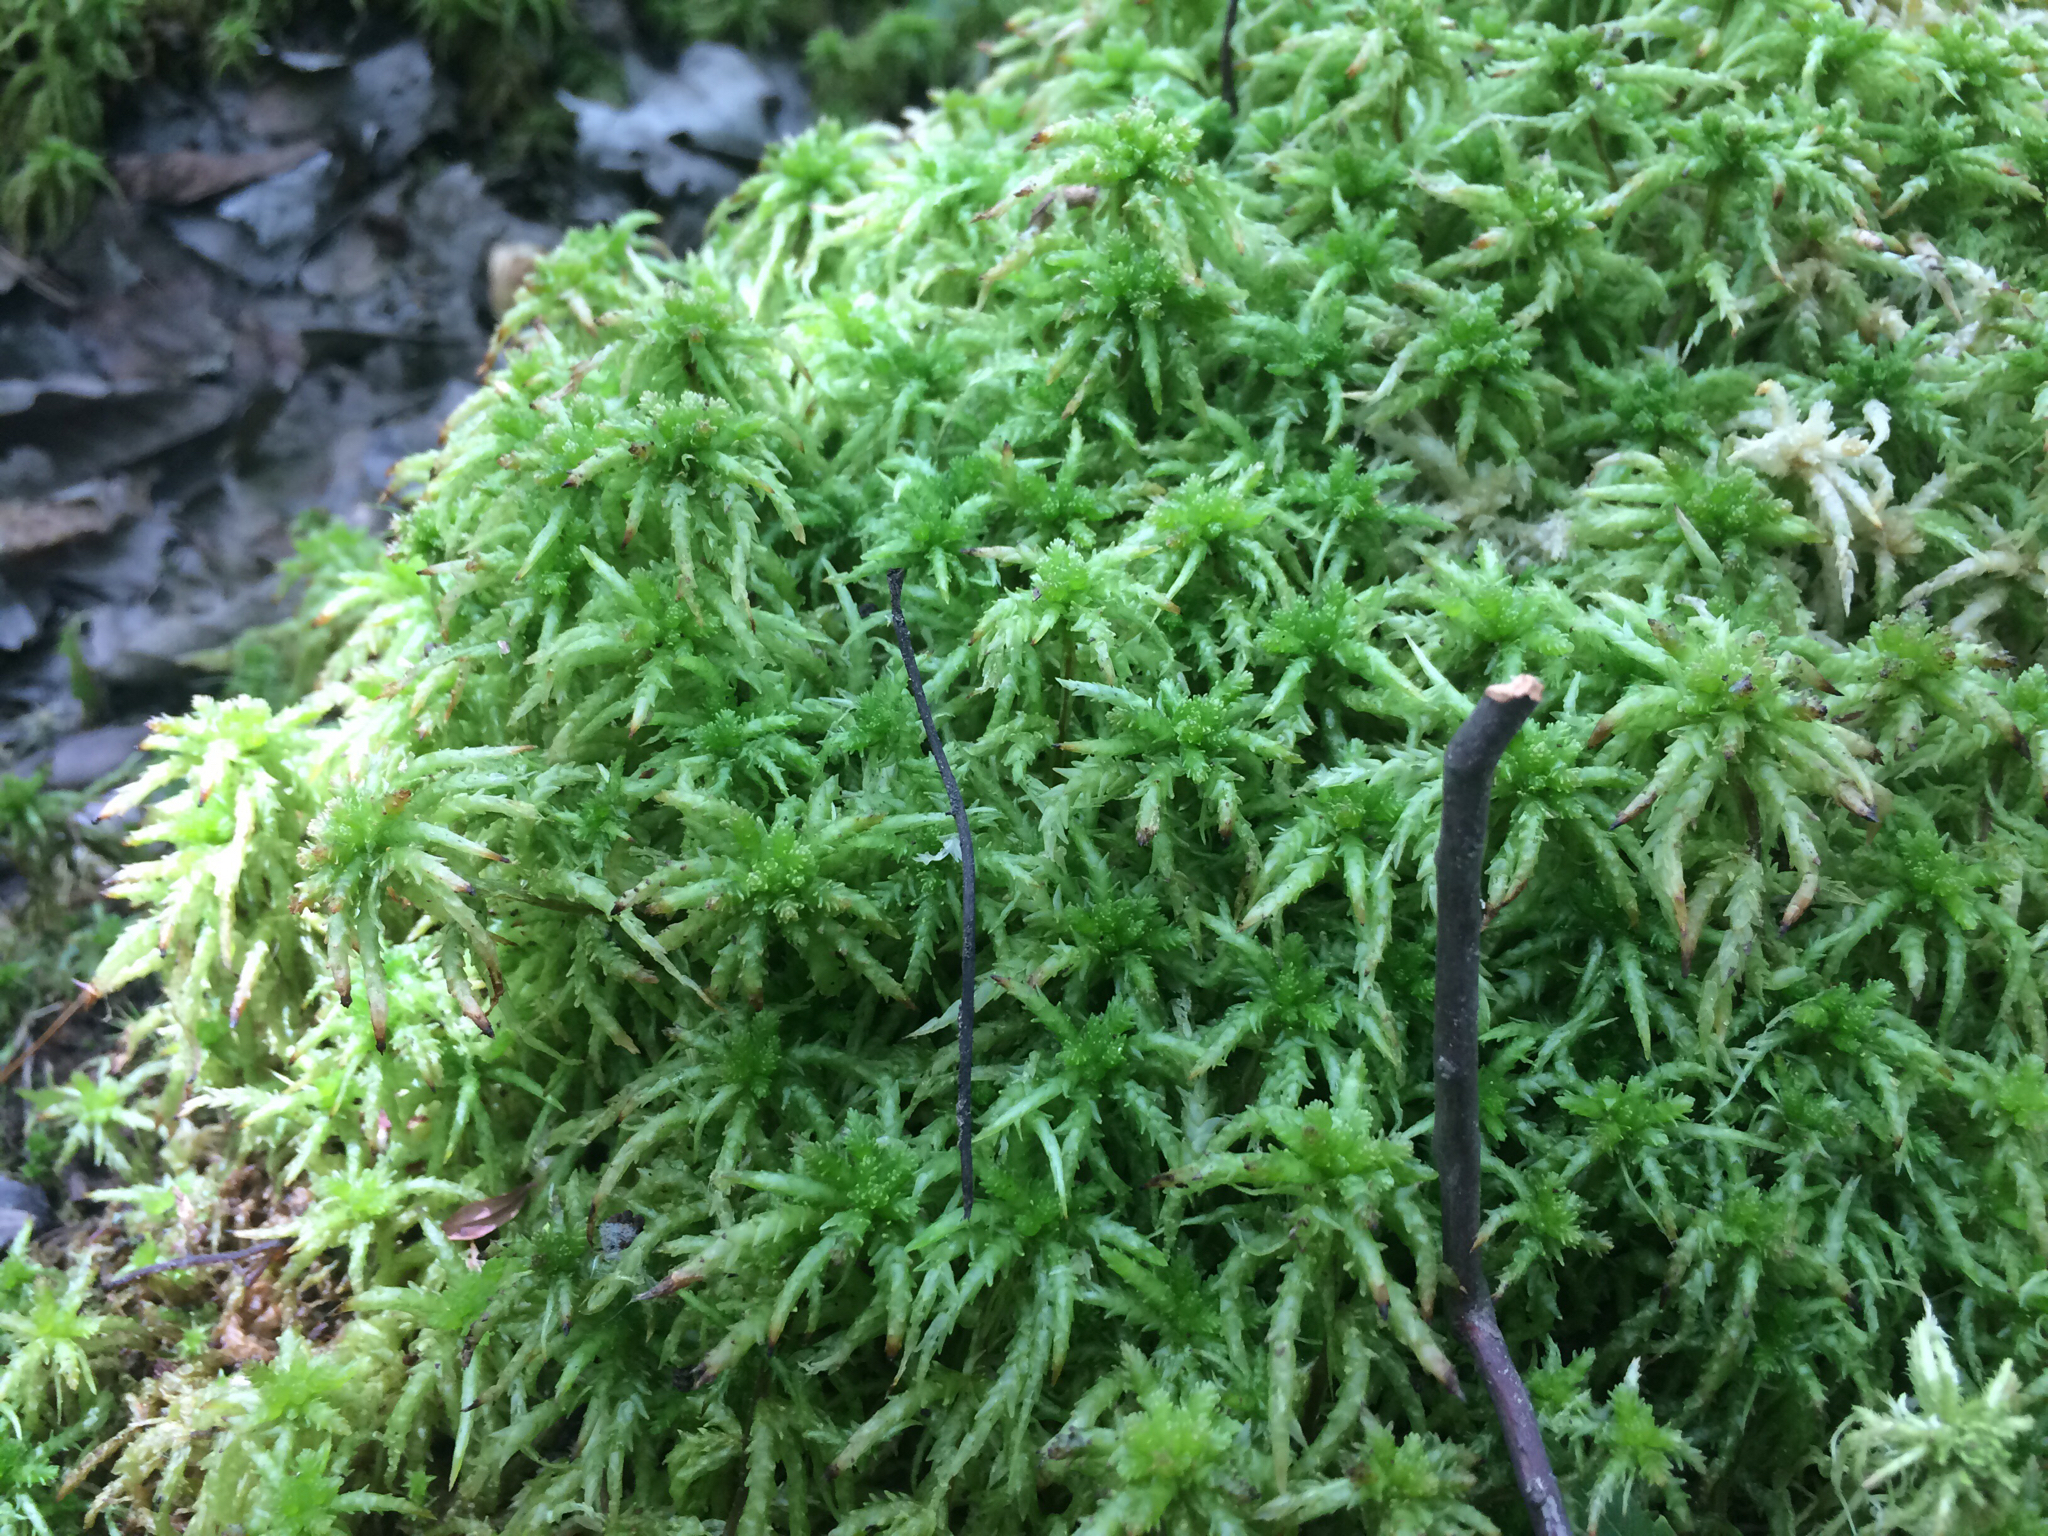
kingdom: Plantae
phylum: Bryophyta
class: Sphagnopsida
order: Sphagnales
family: Sphagnaceae
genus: Sphagnum
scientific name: Sphagnum
